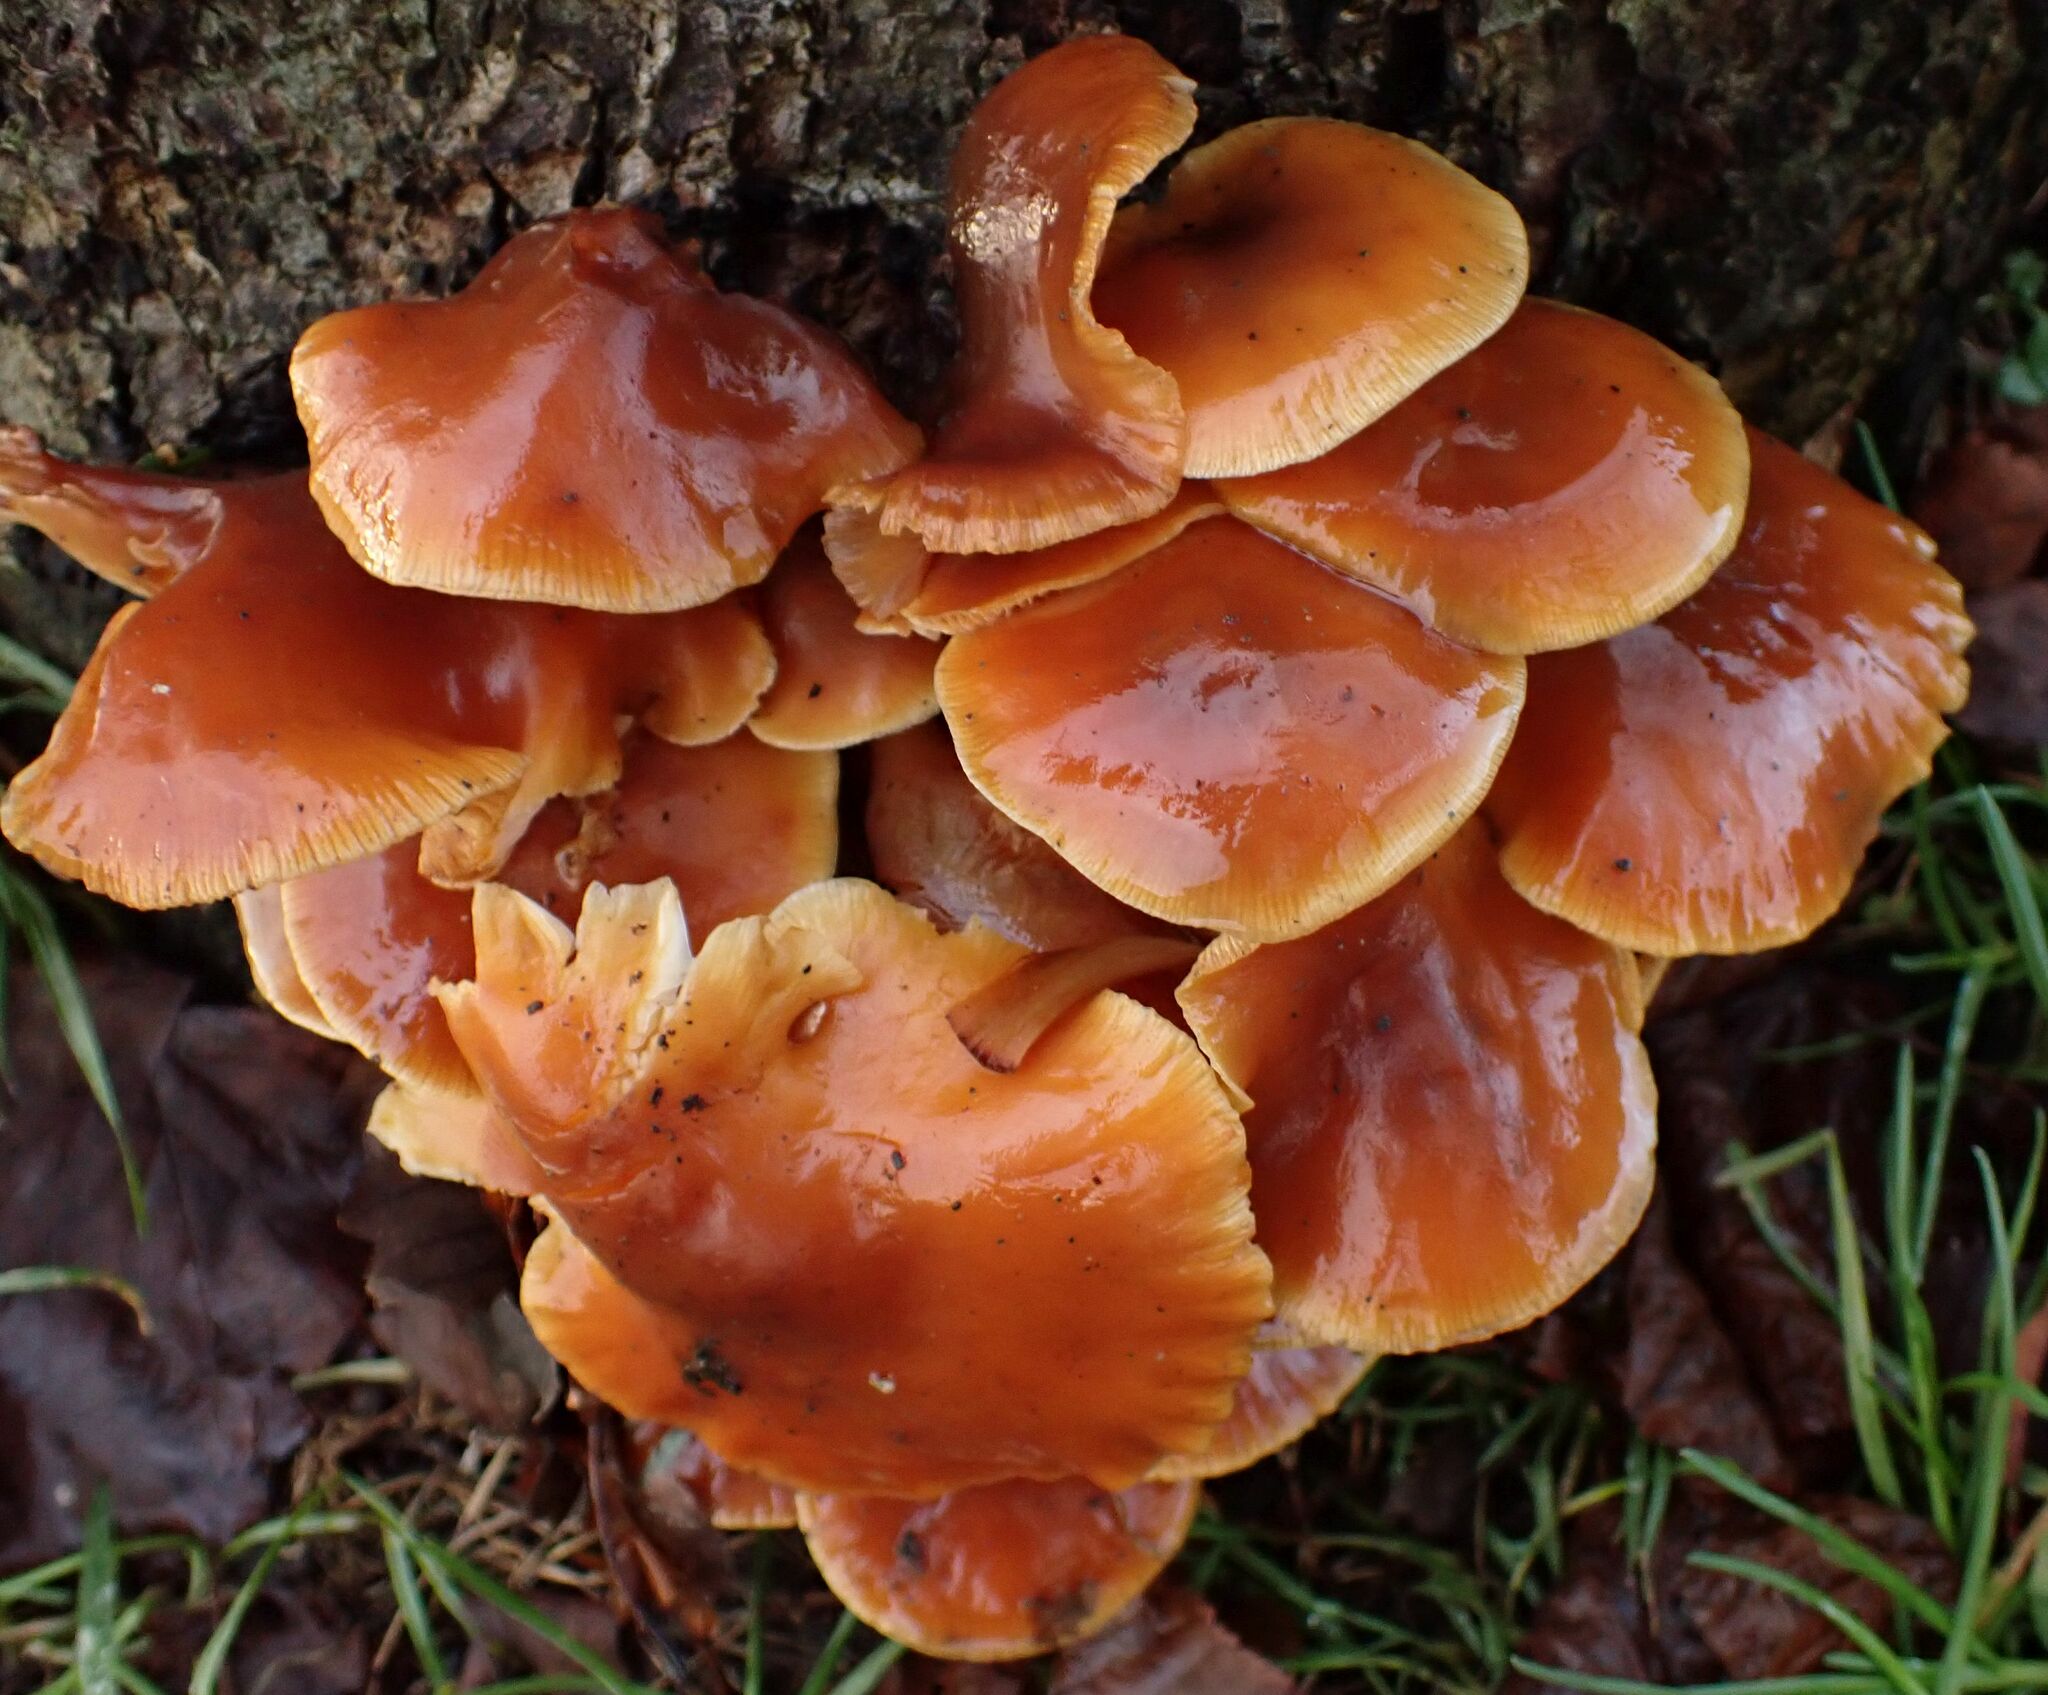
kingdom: Fungi
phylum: Basidiomycota
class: Agaricomycetes
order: Agaricales
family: Physalacriaceae
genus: Flammulina
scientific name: Flammulina
